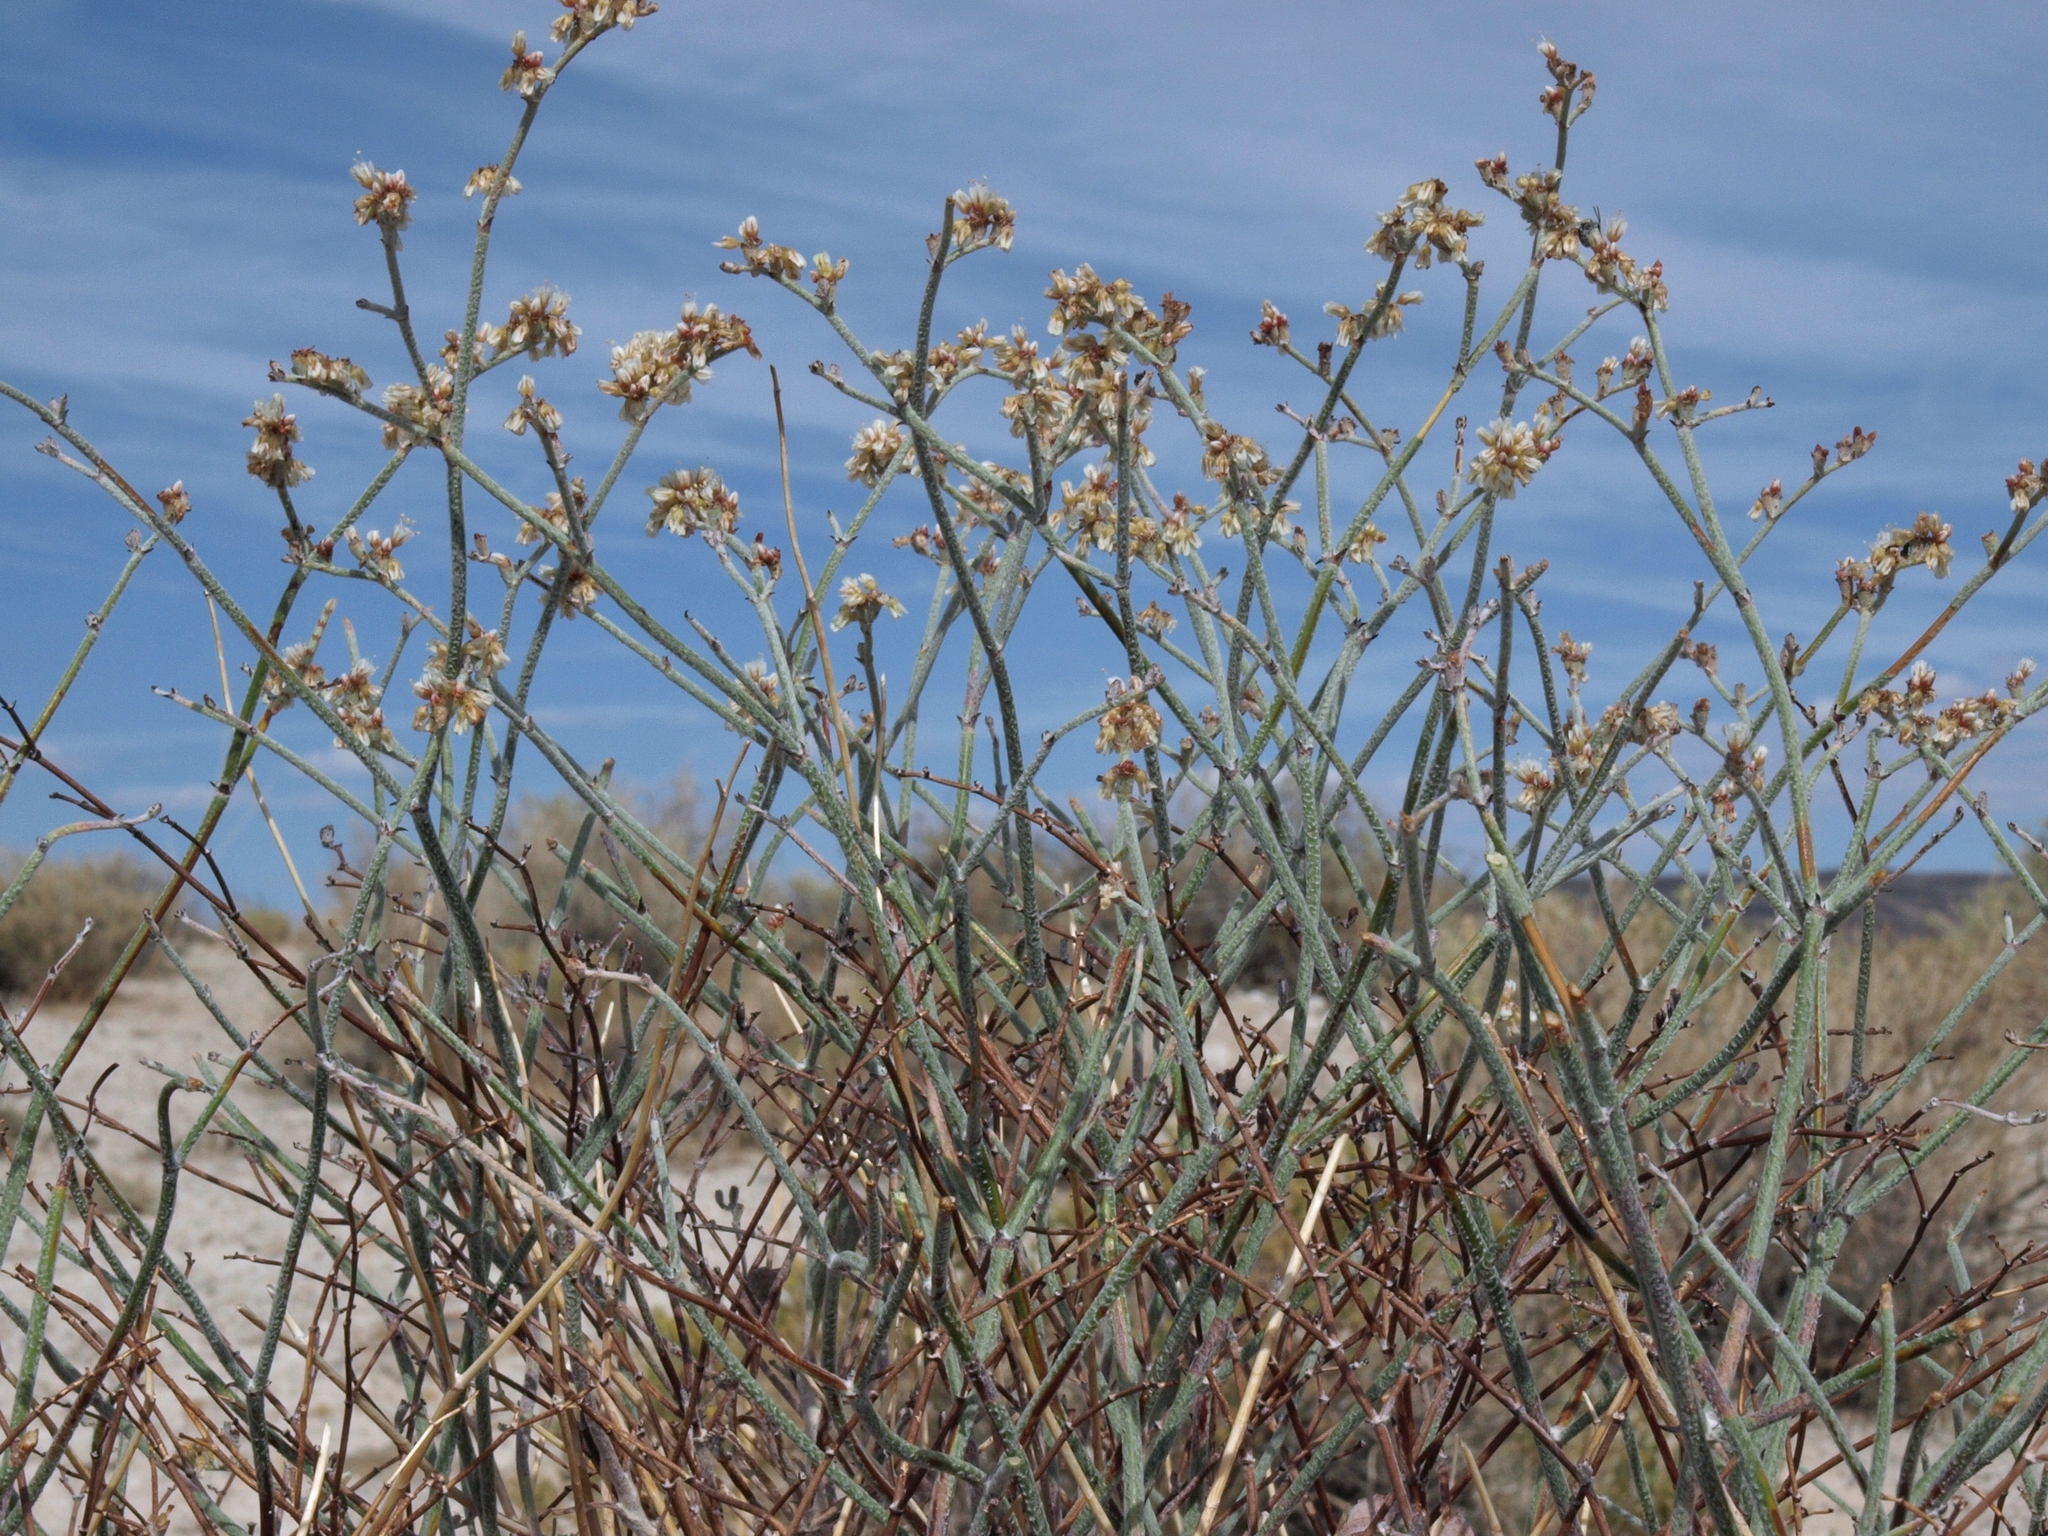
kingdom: Plantae
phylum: Tracheophyta
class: Magnoliopsida
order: Caryophyllales
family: Polygonaceae
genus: Eriogonum
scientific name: Eriogonum nummulare
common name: Kearney wild buckwheat
